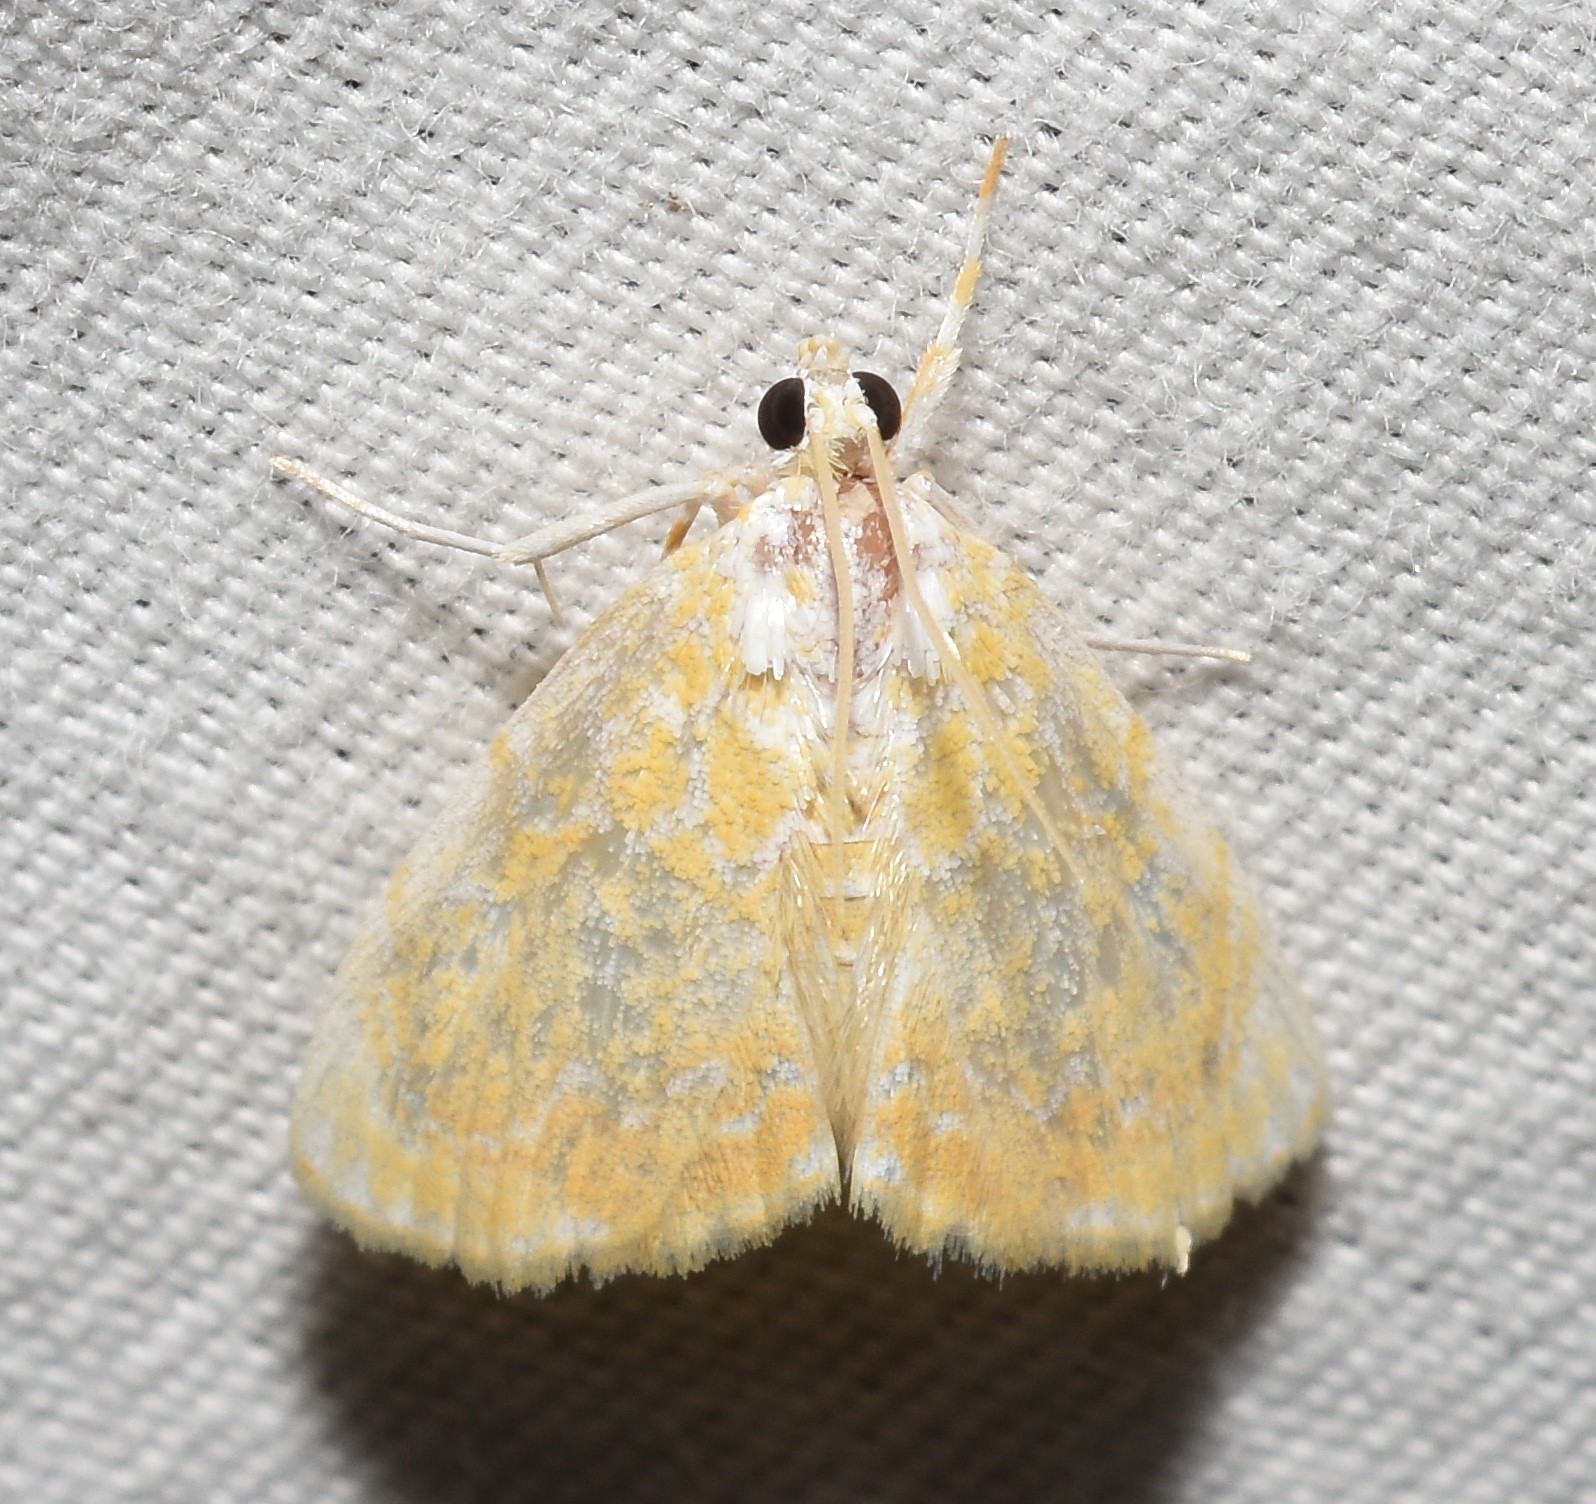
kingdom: Animalia
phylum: Arthropoda
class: Insecta
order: Lepidoptera
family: Crambidae
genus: Glaphyria
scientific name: Glaphyria glaphyralis
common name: Common glaphyria moth
